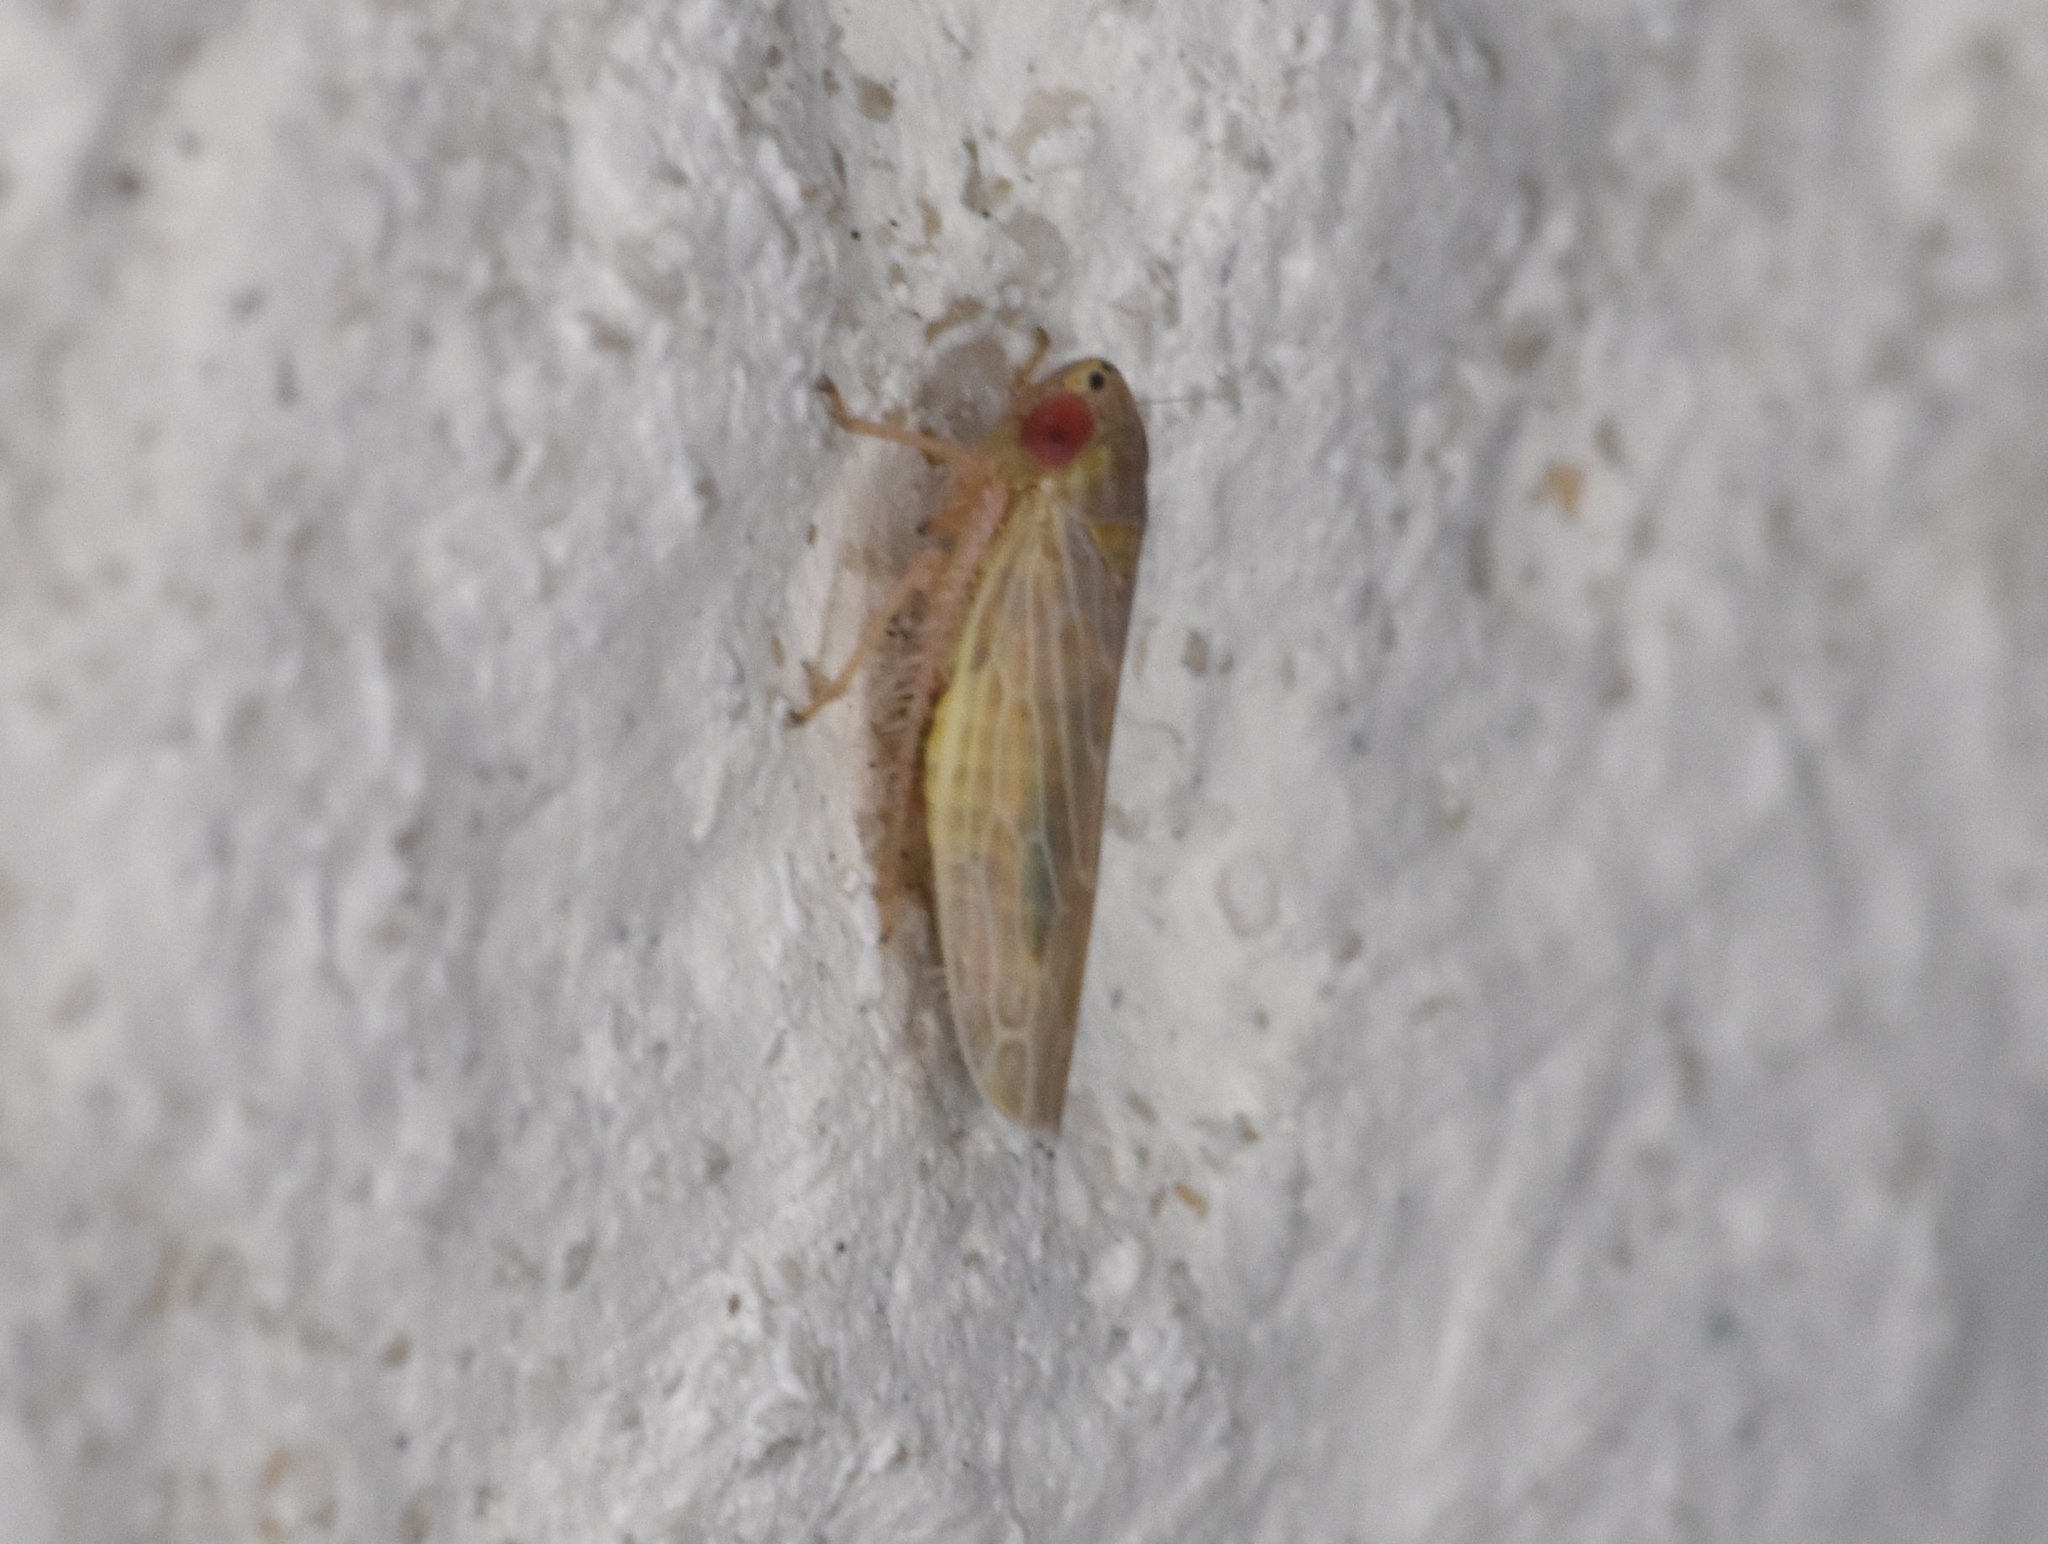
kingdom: Animalia
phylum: Arthropoda
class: Insecta
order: Hemiptera
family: Cicadellidae
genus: Graminella
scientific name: Graminella sonora
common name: Lesser lawn leafhopper
